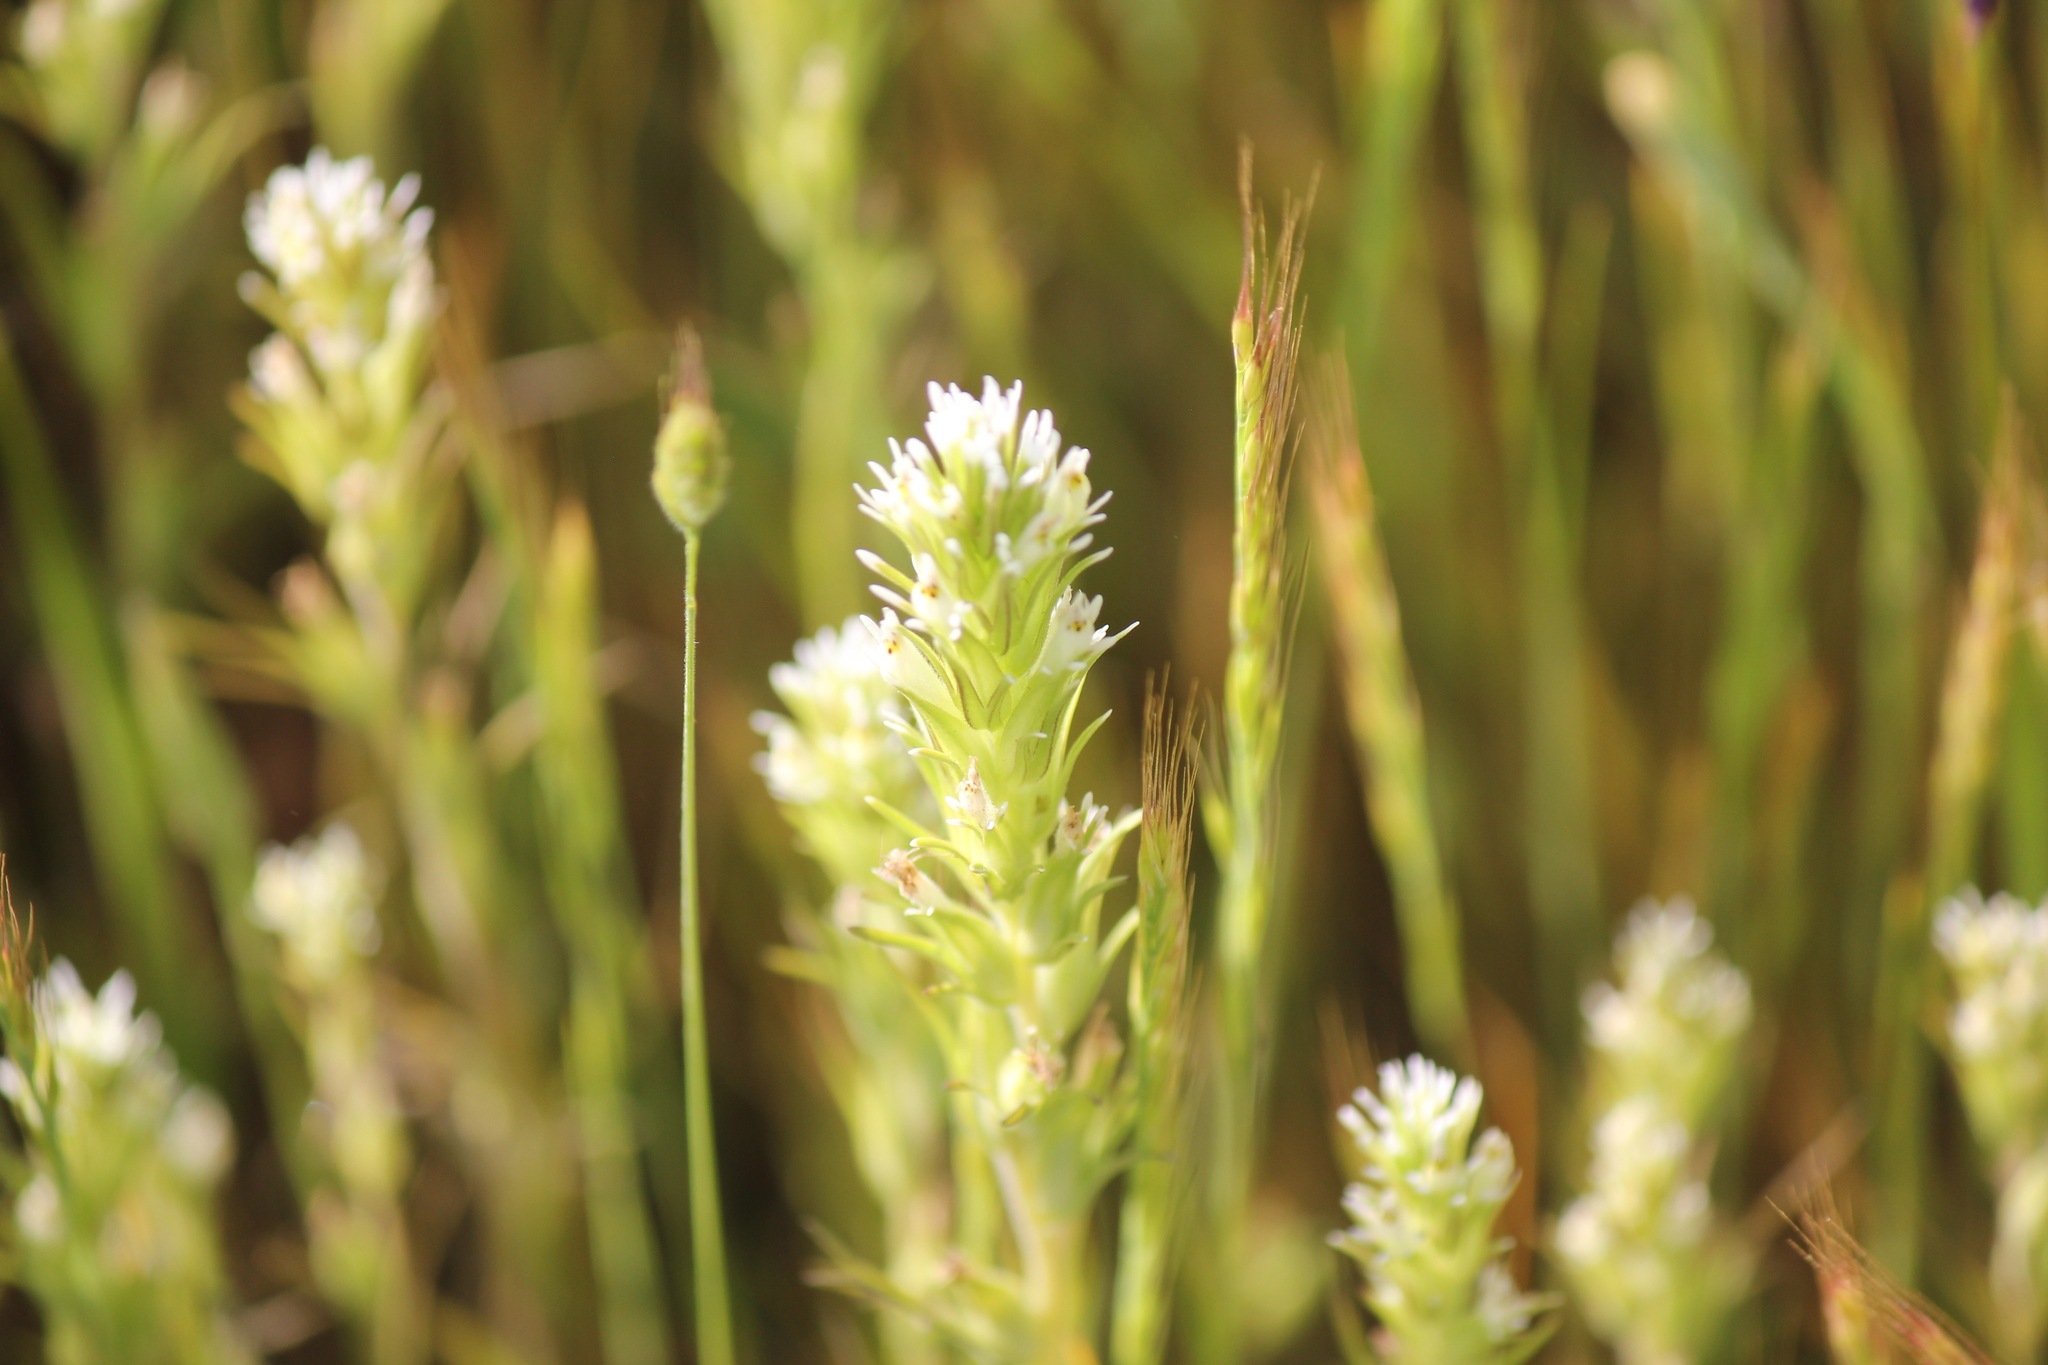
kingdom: Plantae
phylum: Tracheophyta
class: Magnoliopsida
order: Lamiales
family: Orobanchaceae
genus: Castilleja
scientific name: Castilleja attenuata
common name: Valley tassels
